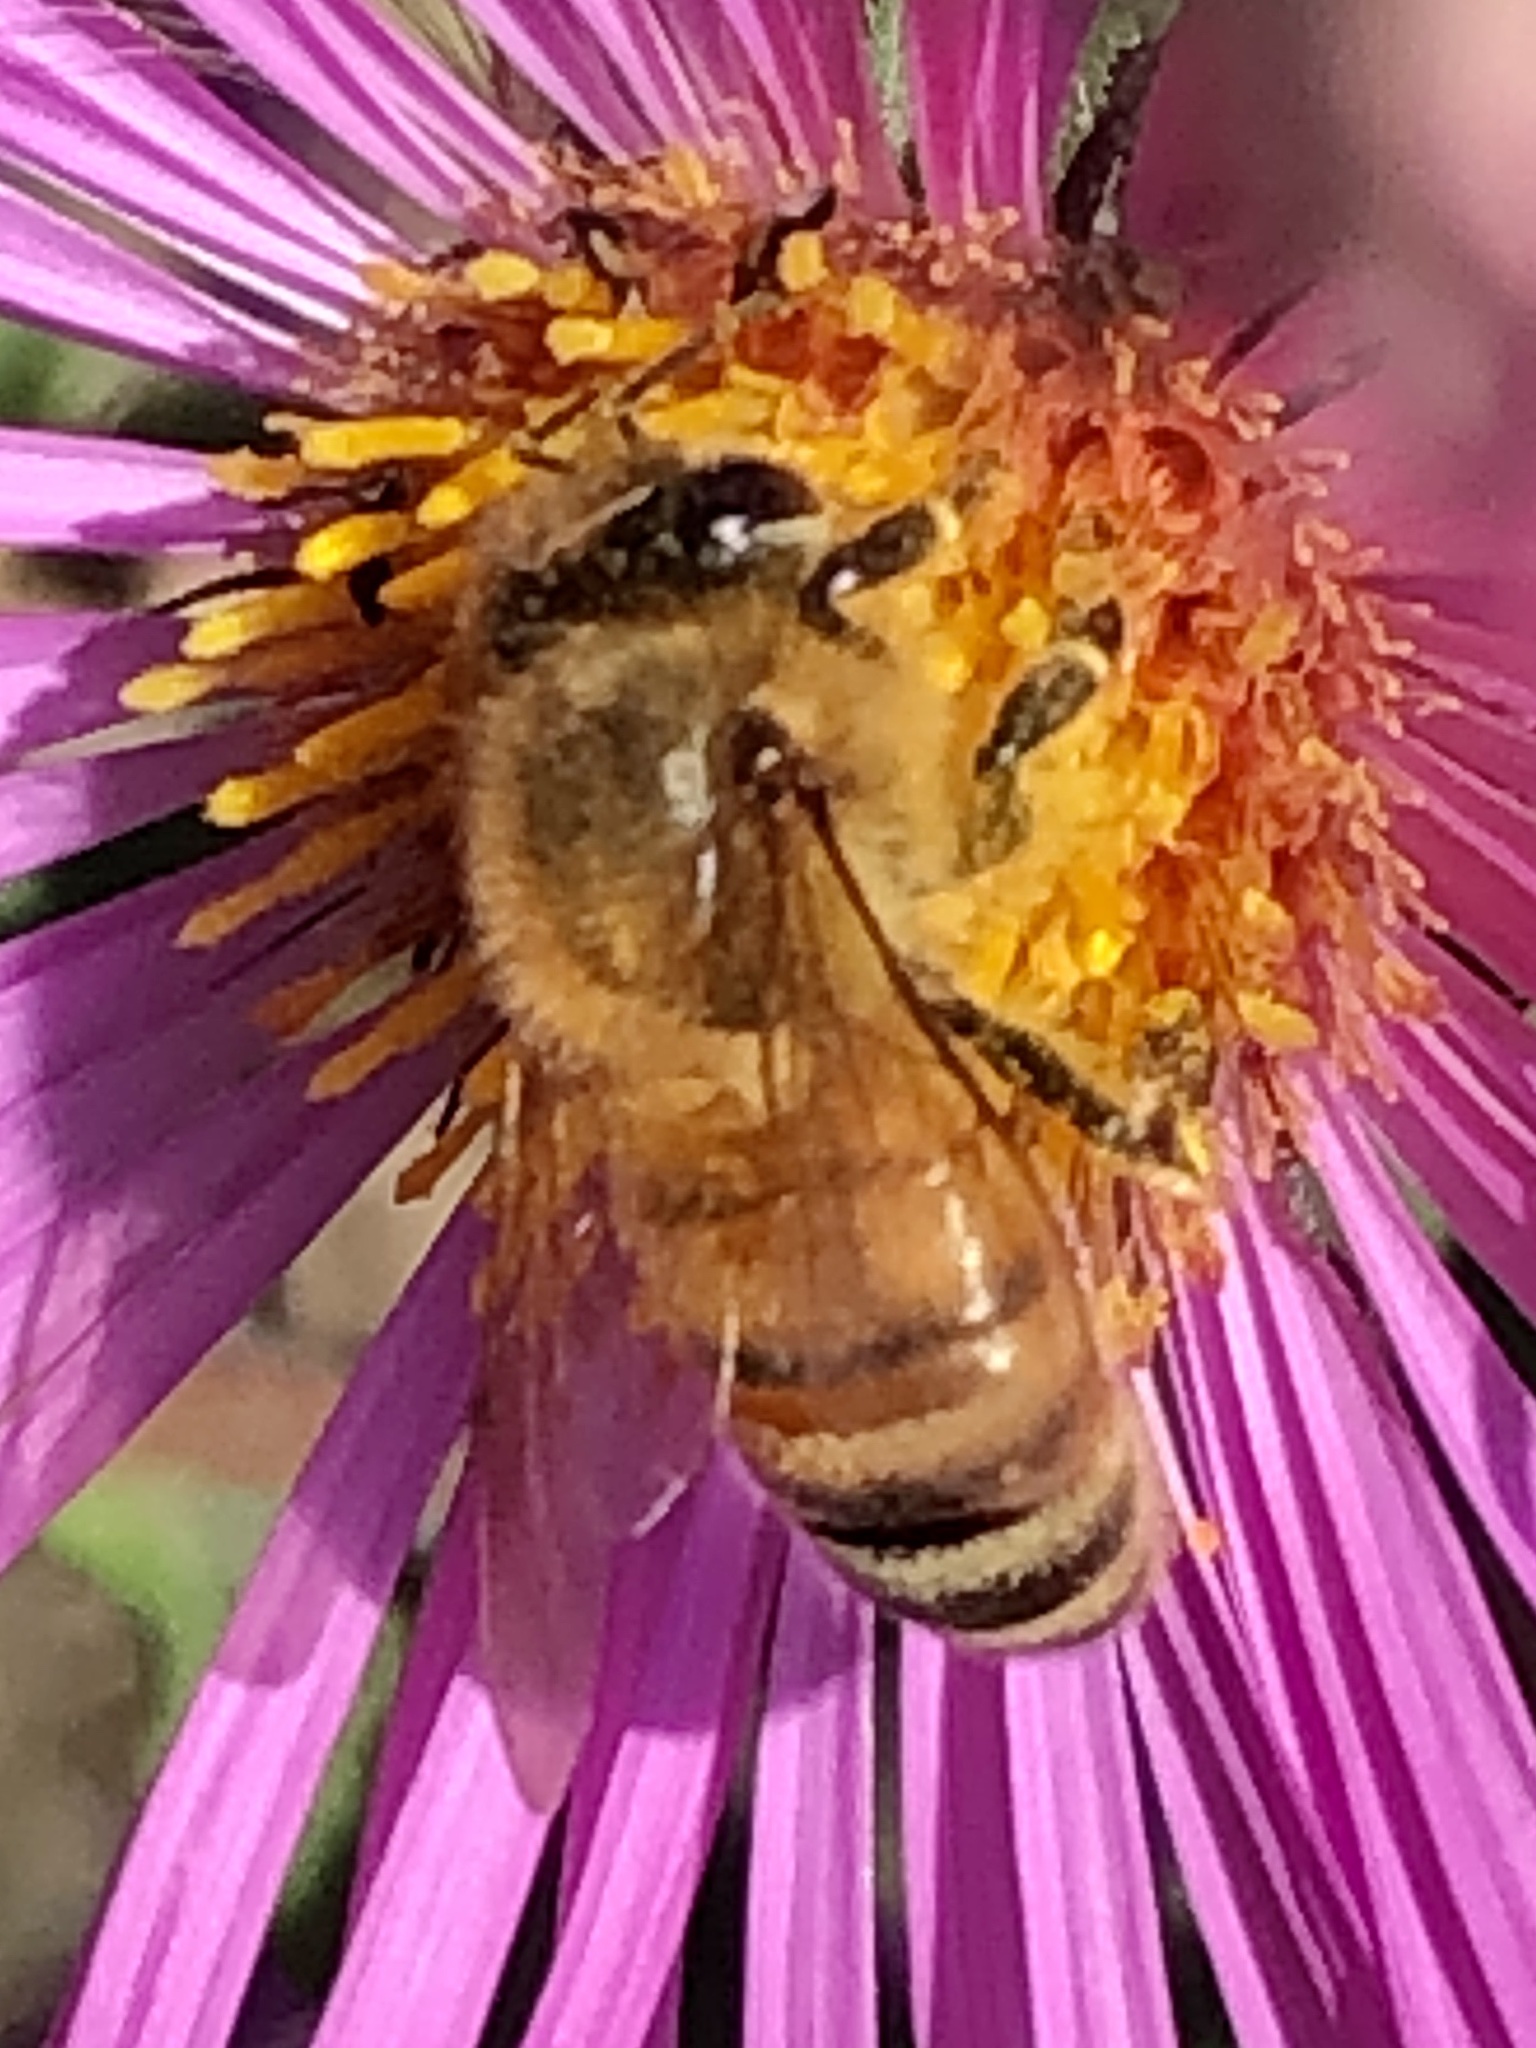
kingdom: Animalia
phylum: Arthropoda
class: Insecta
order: Hymenoptera
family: Apidae
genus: Apis
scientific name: Apis mellifera
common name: Honey bee
